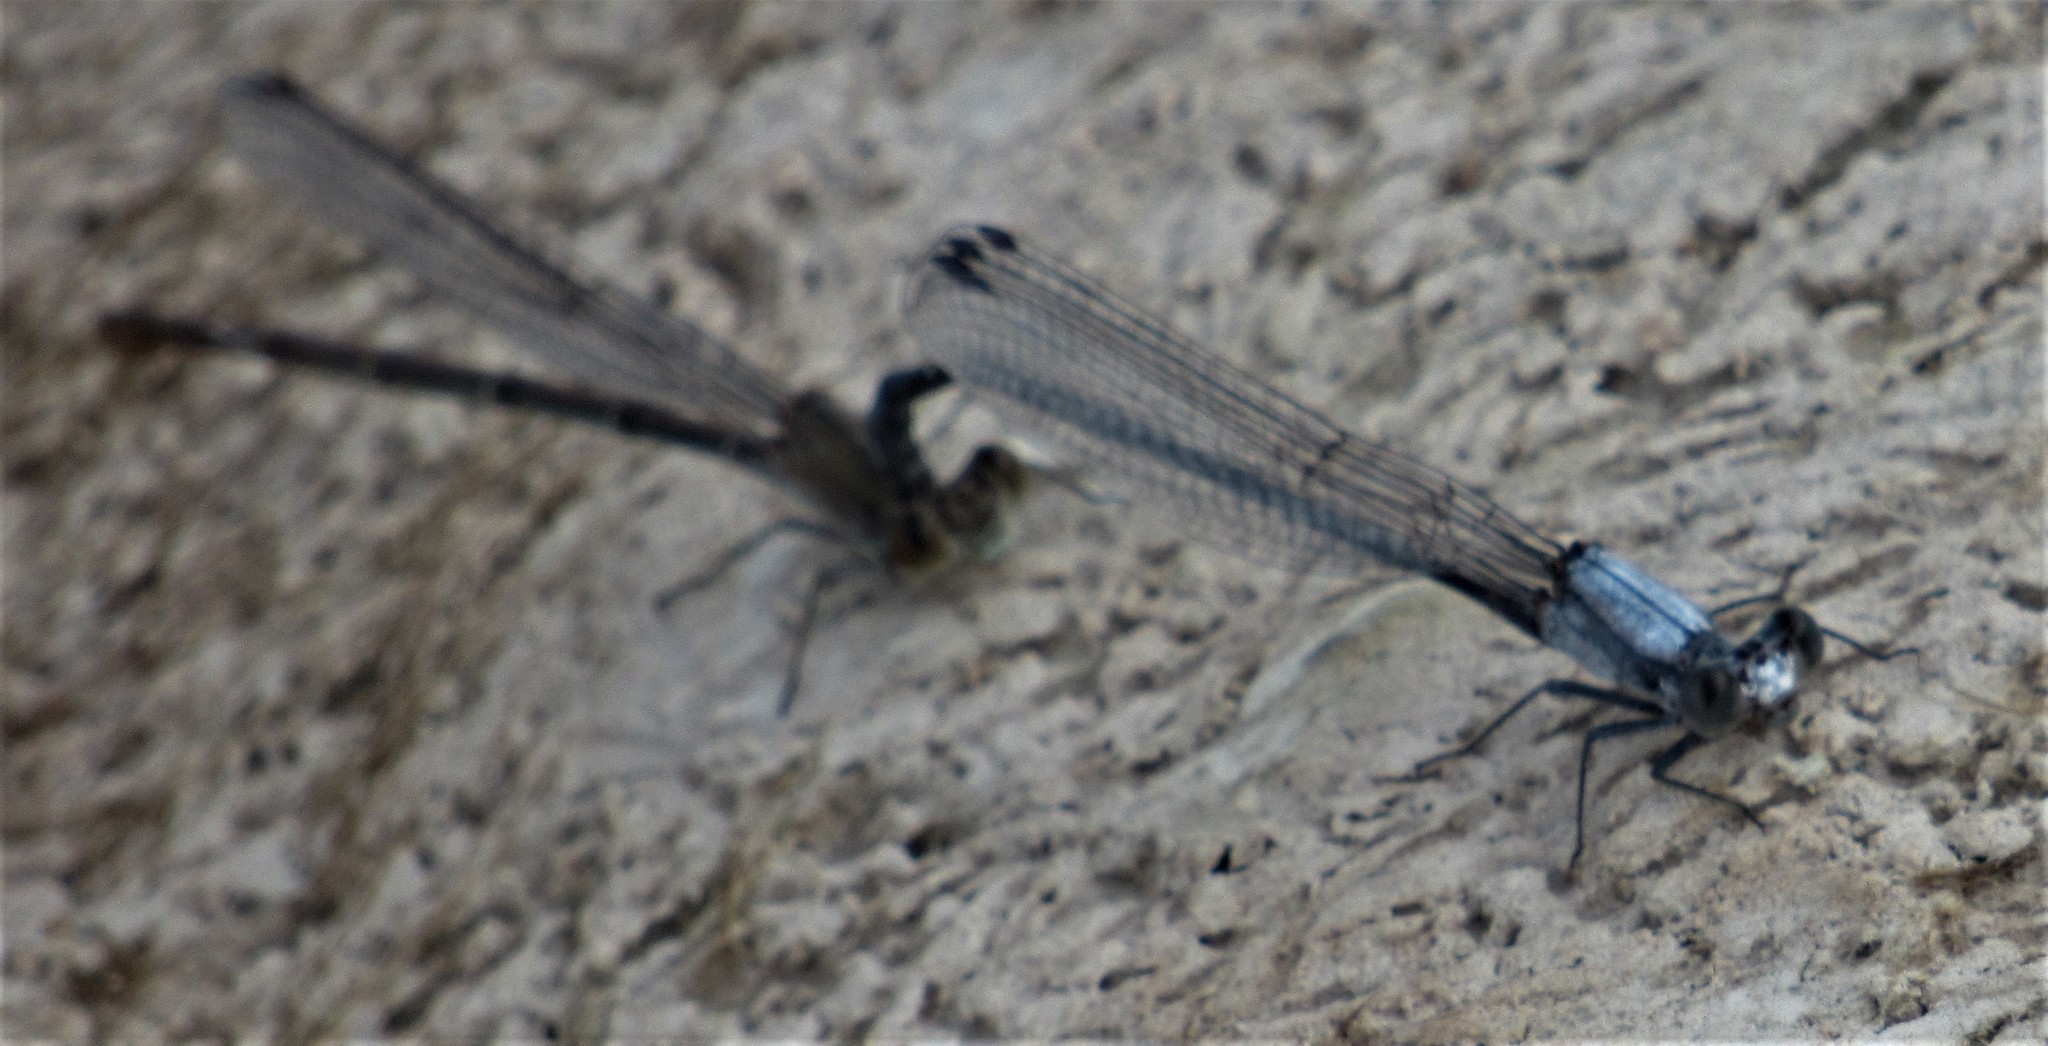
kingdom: Animalia
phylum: Arthropoda
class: Insecta
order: Odonata
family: Coenagrionidae
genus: Argia
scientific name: Argia moesta
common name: Powdered dancer
